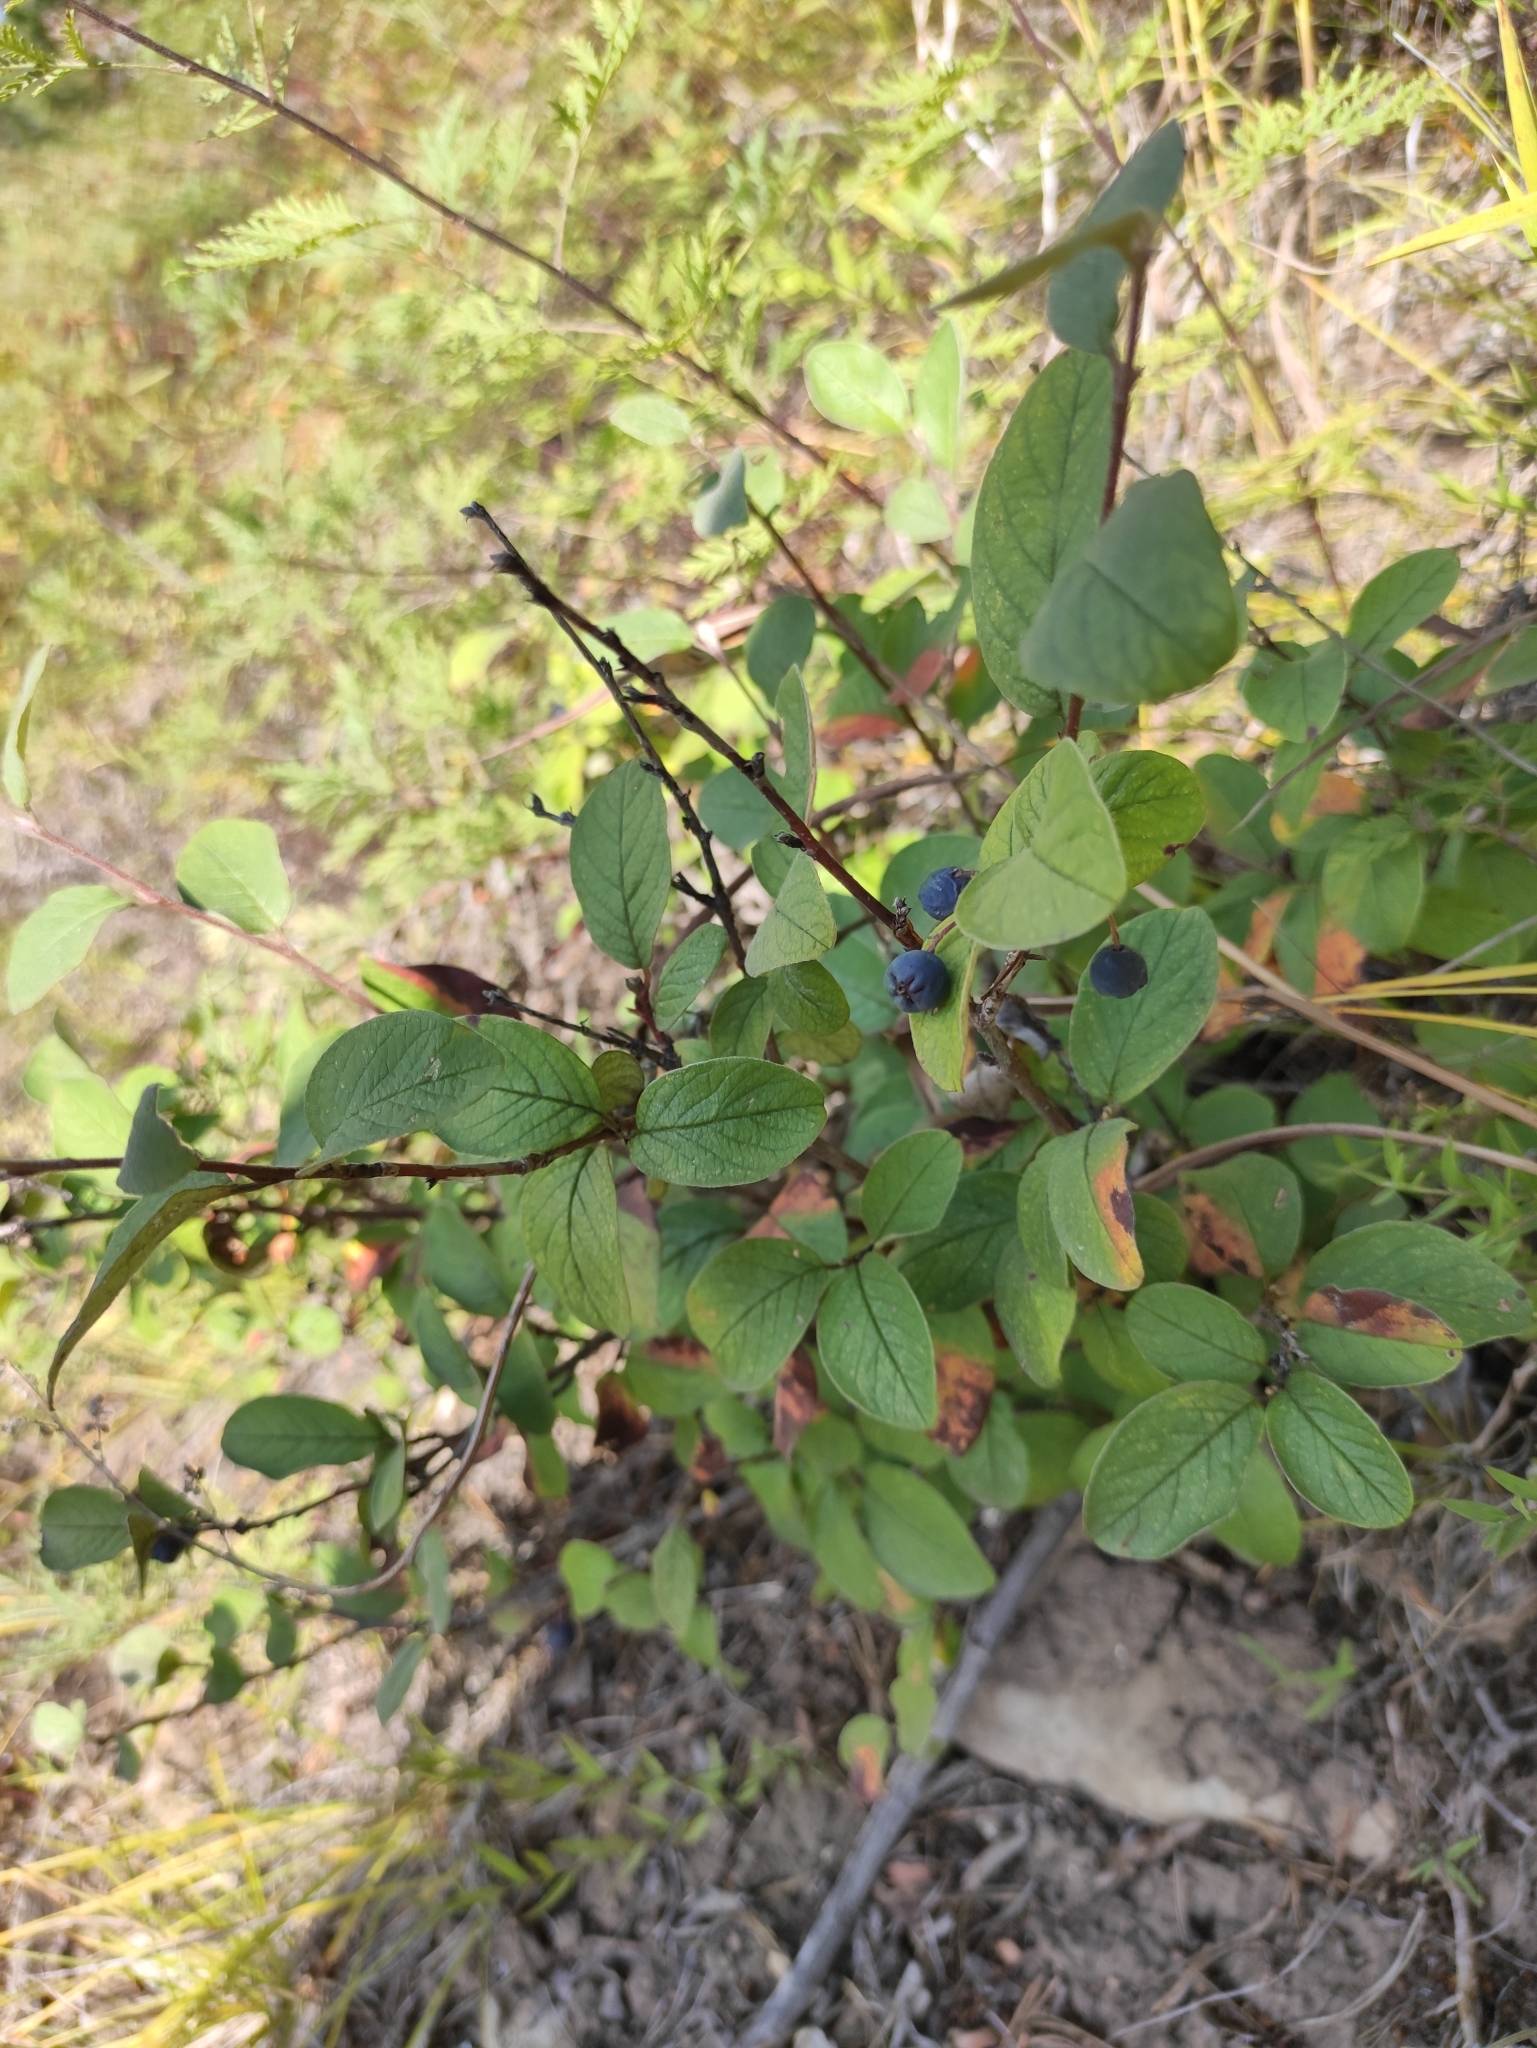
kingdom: Plantae
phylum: Tracheophyta
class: Magnoliopsida
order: Rosales
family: Rosaceae
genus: Cotoneaster
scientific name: Cotoneaster melanocarpus
